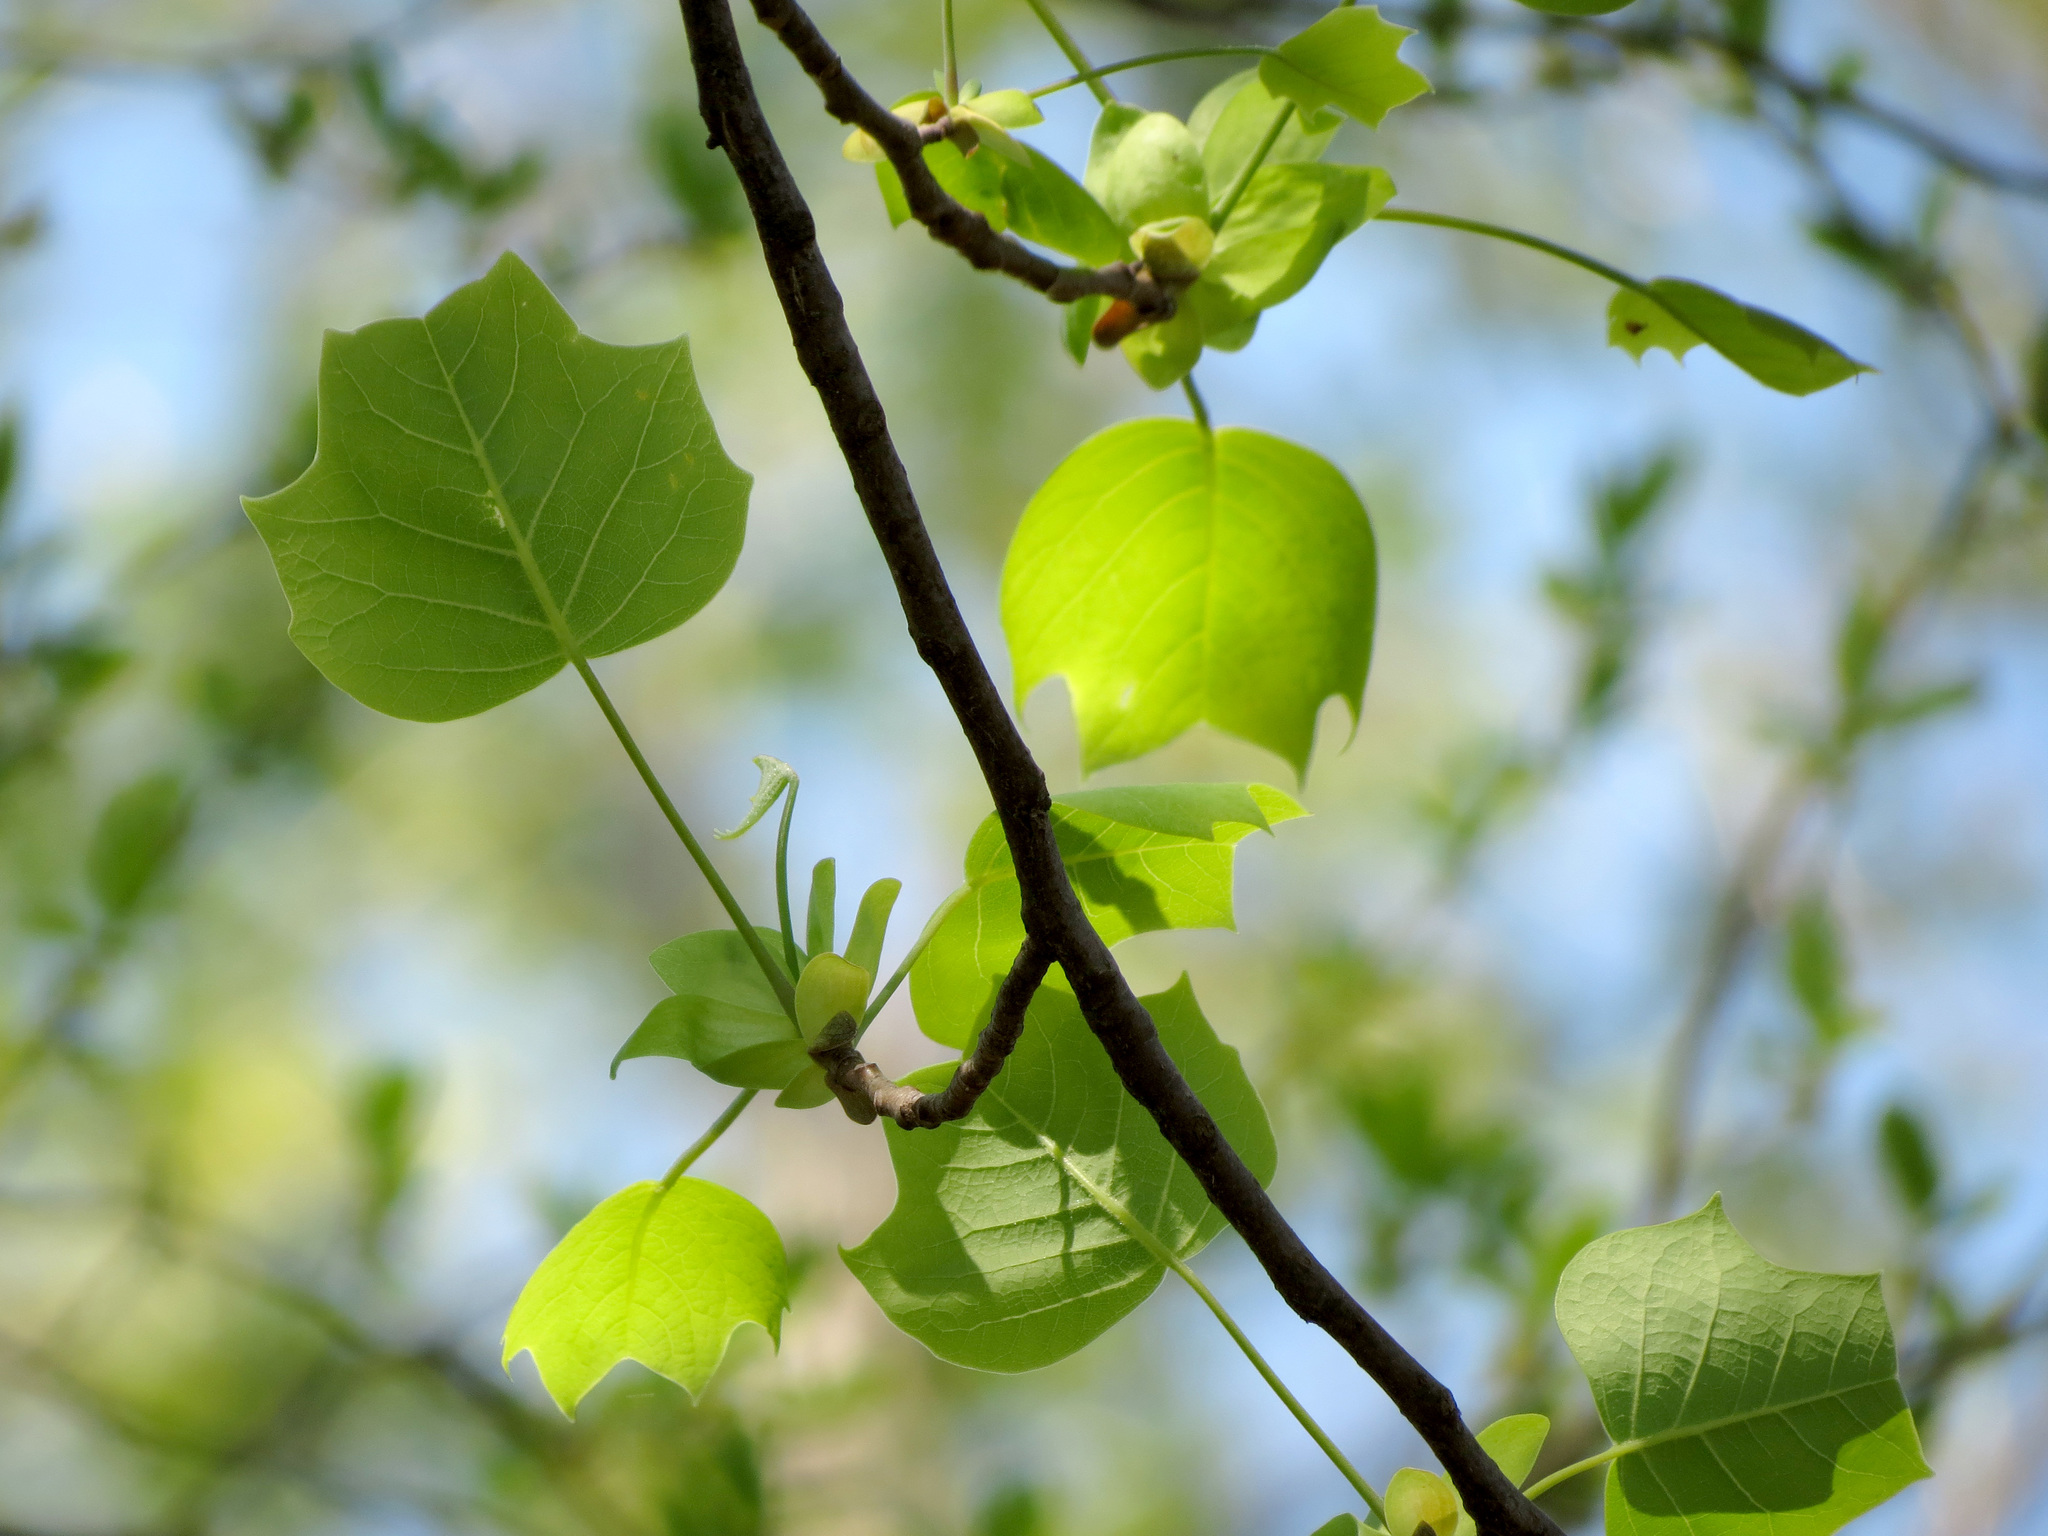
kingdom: Plantae
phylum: Tracheophyta
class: Magnoliopsida
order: Magnoliales
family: Magnoliaceae
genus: Liriodendron
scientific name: Liriodendron tulipifera
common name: Tulip tree
